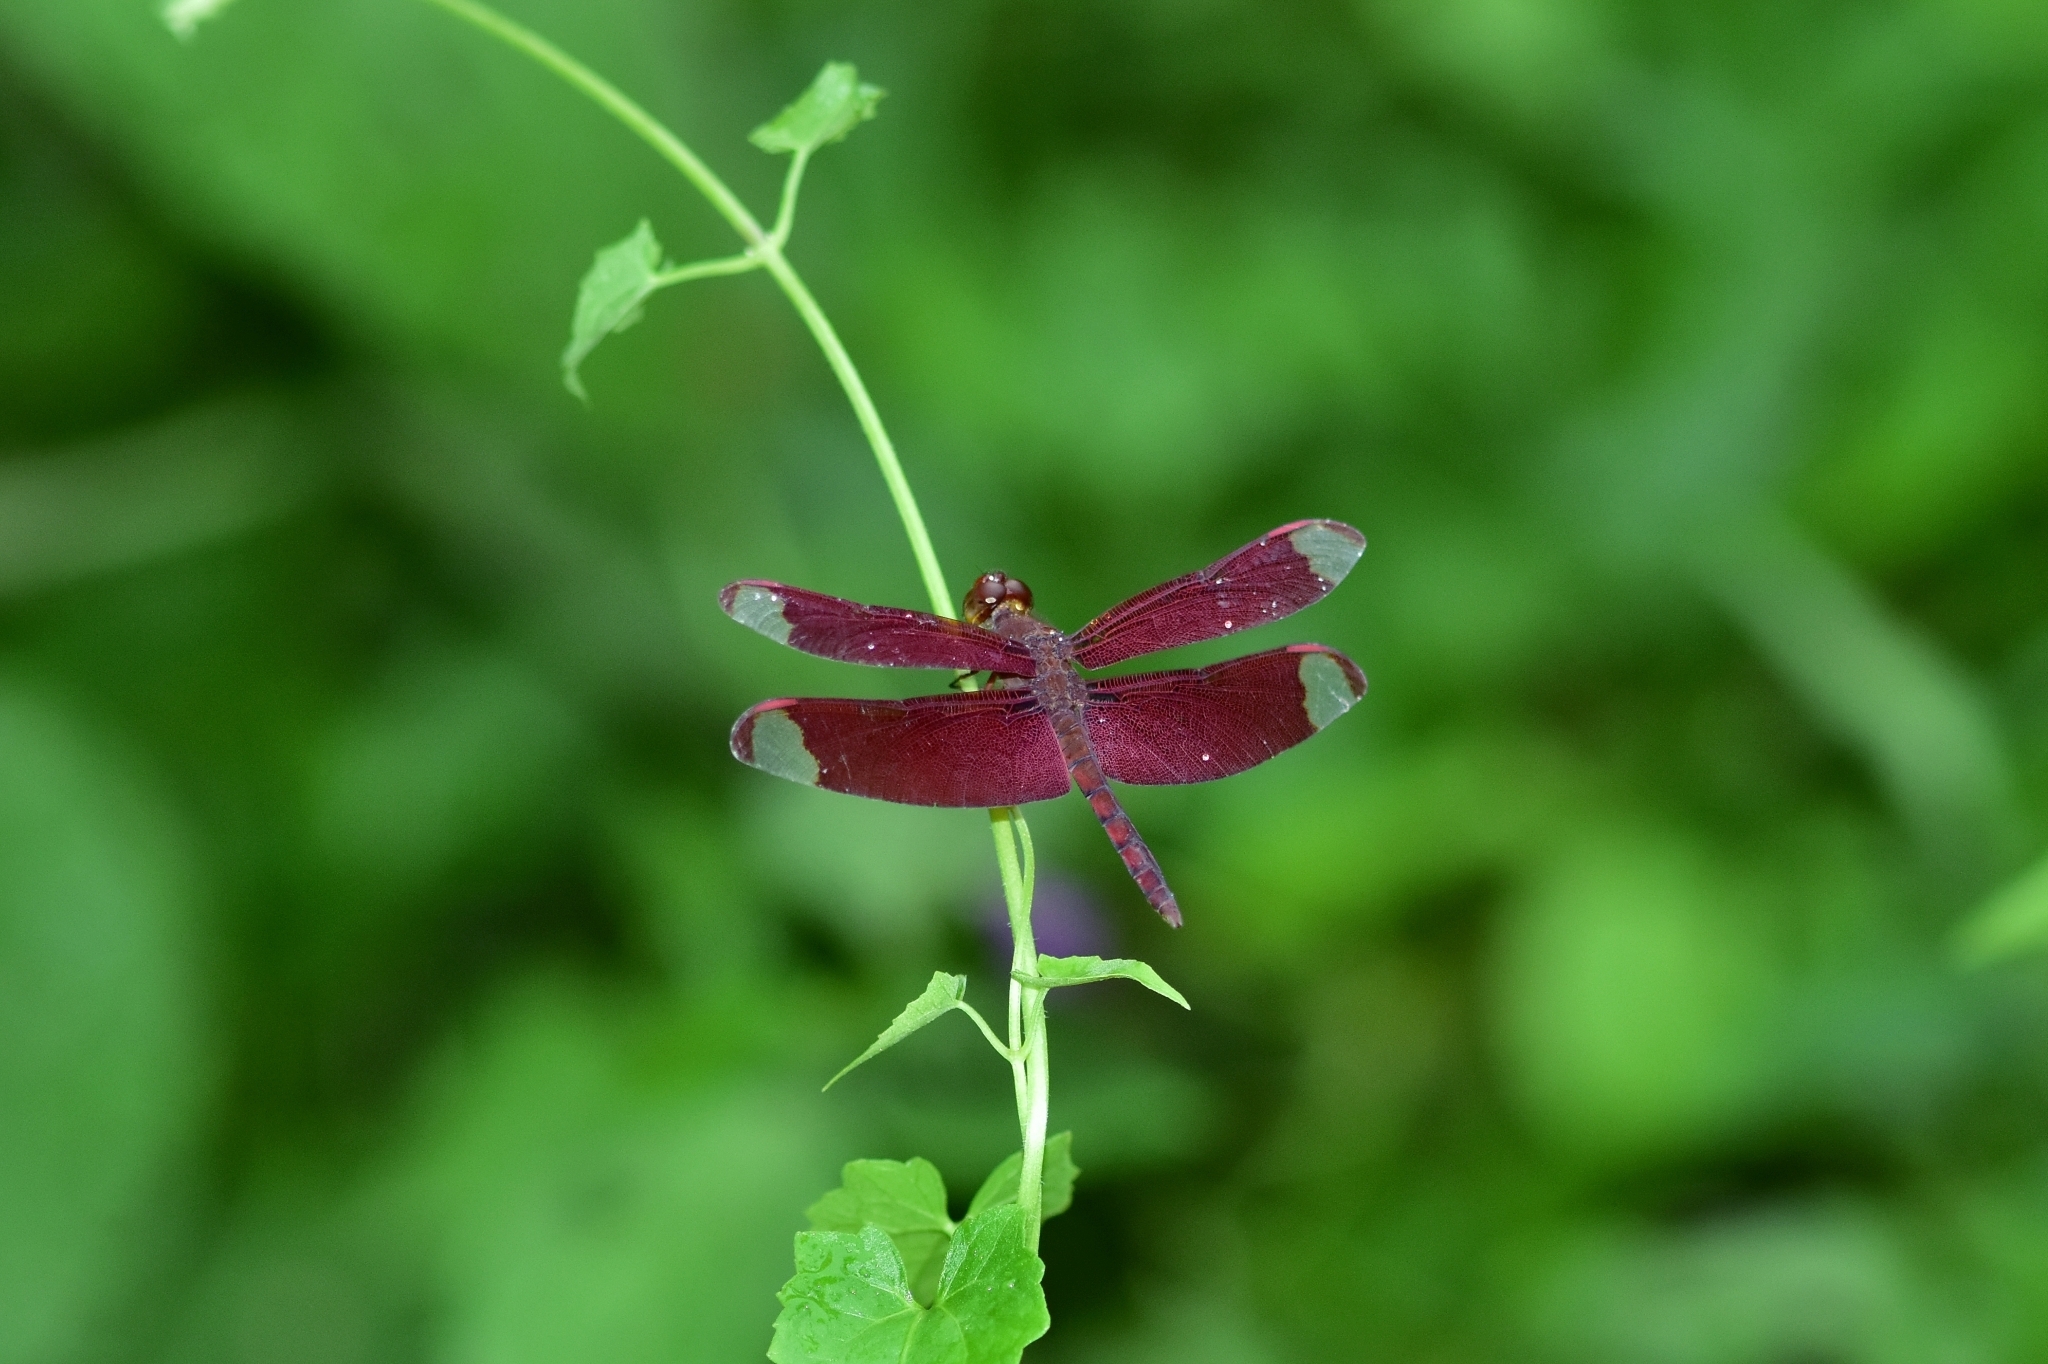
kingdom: Animalia
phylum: Arthropoda
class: Insecta
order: Odonata
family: Libellulidae
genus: Neurothemis
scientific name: Neurothemis fulvia
